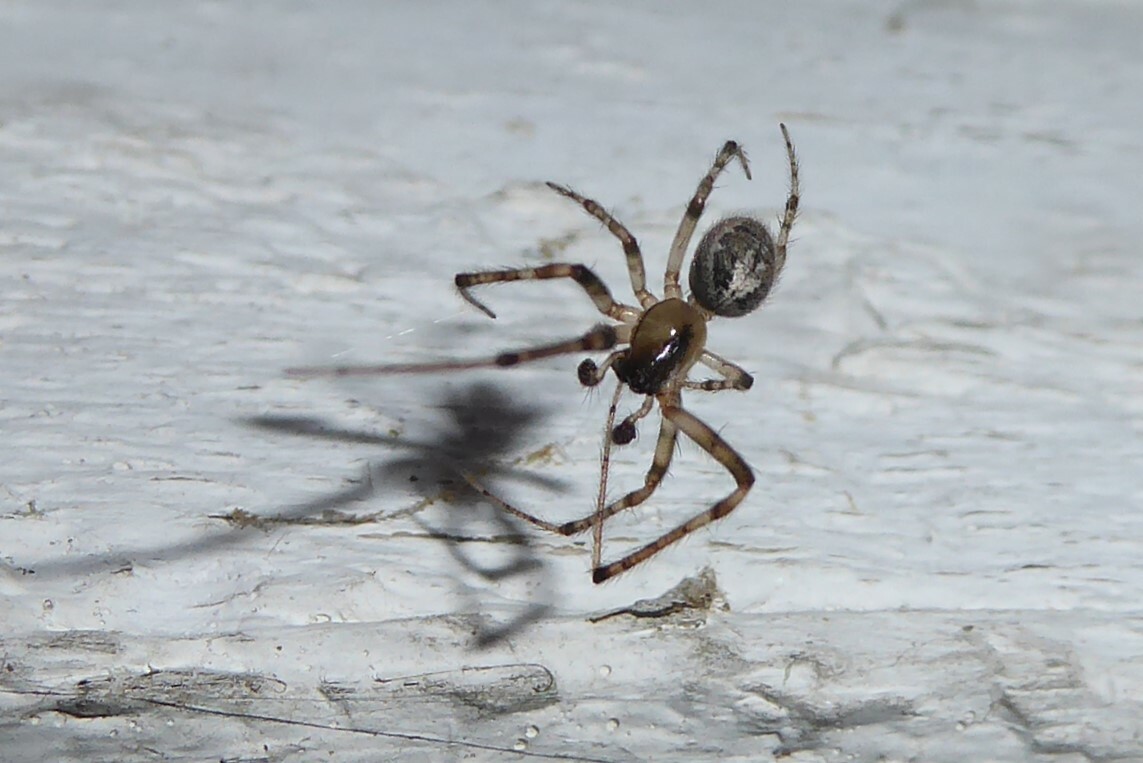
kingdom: Animalia
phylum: Arthropoda
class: Arachnida
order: Araneae
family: Araneidae
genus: Zygiella
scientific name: Zygiella x-notata
